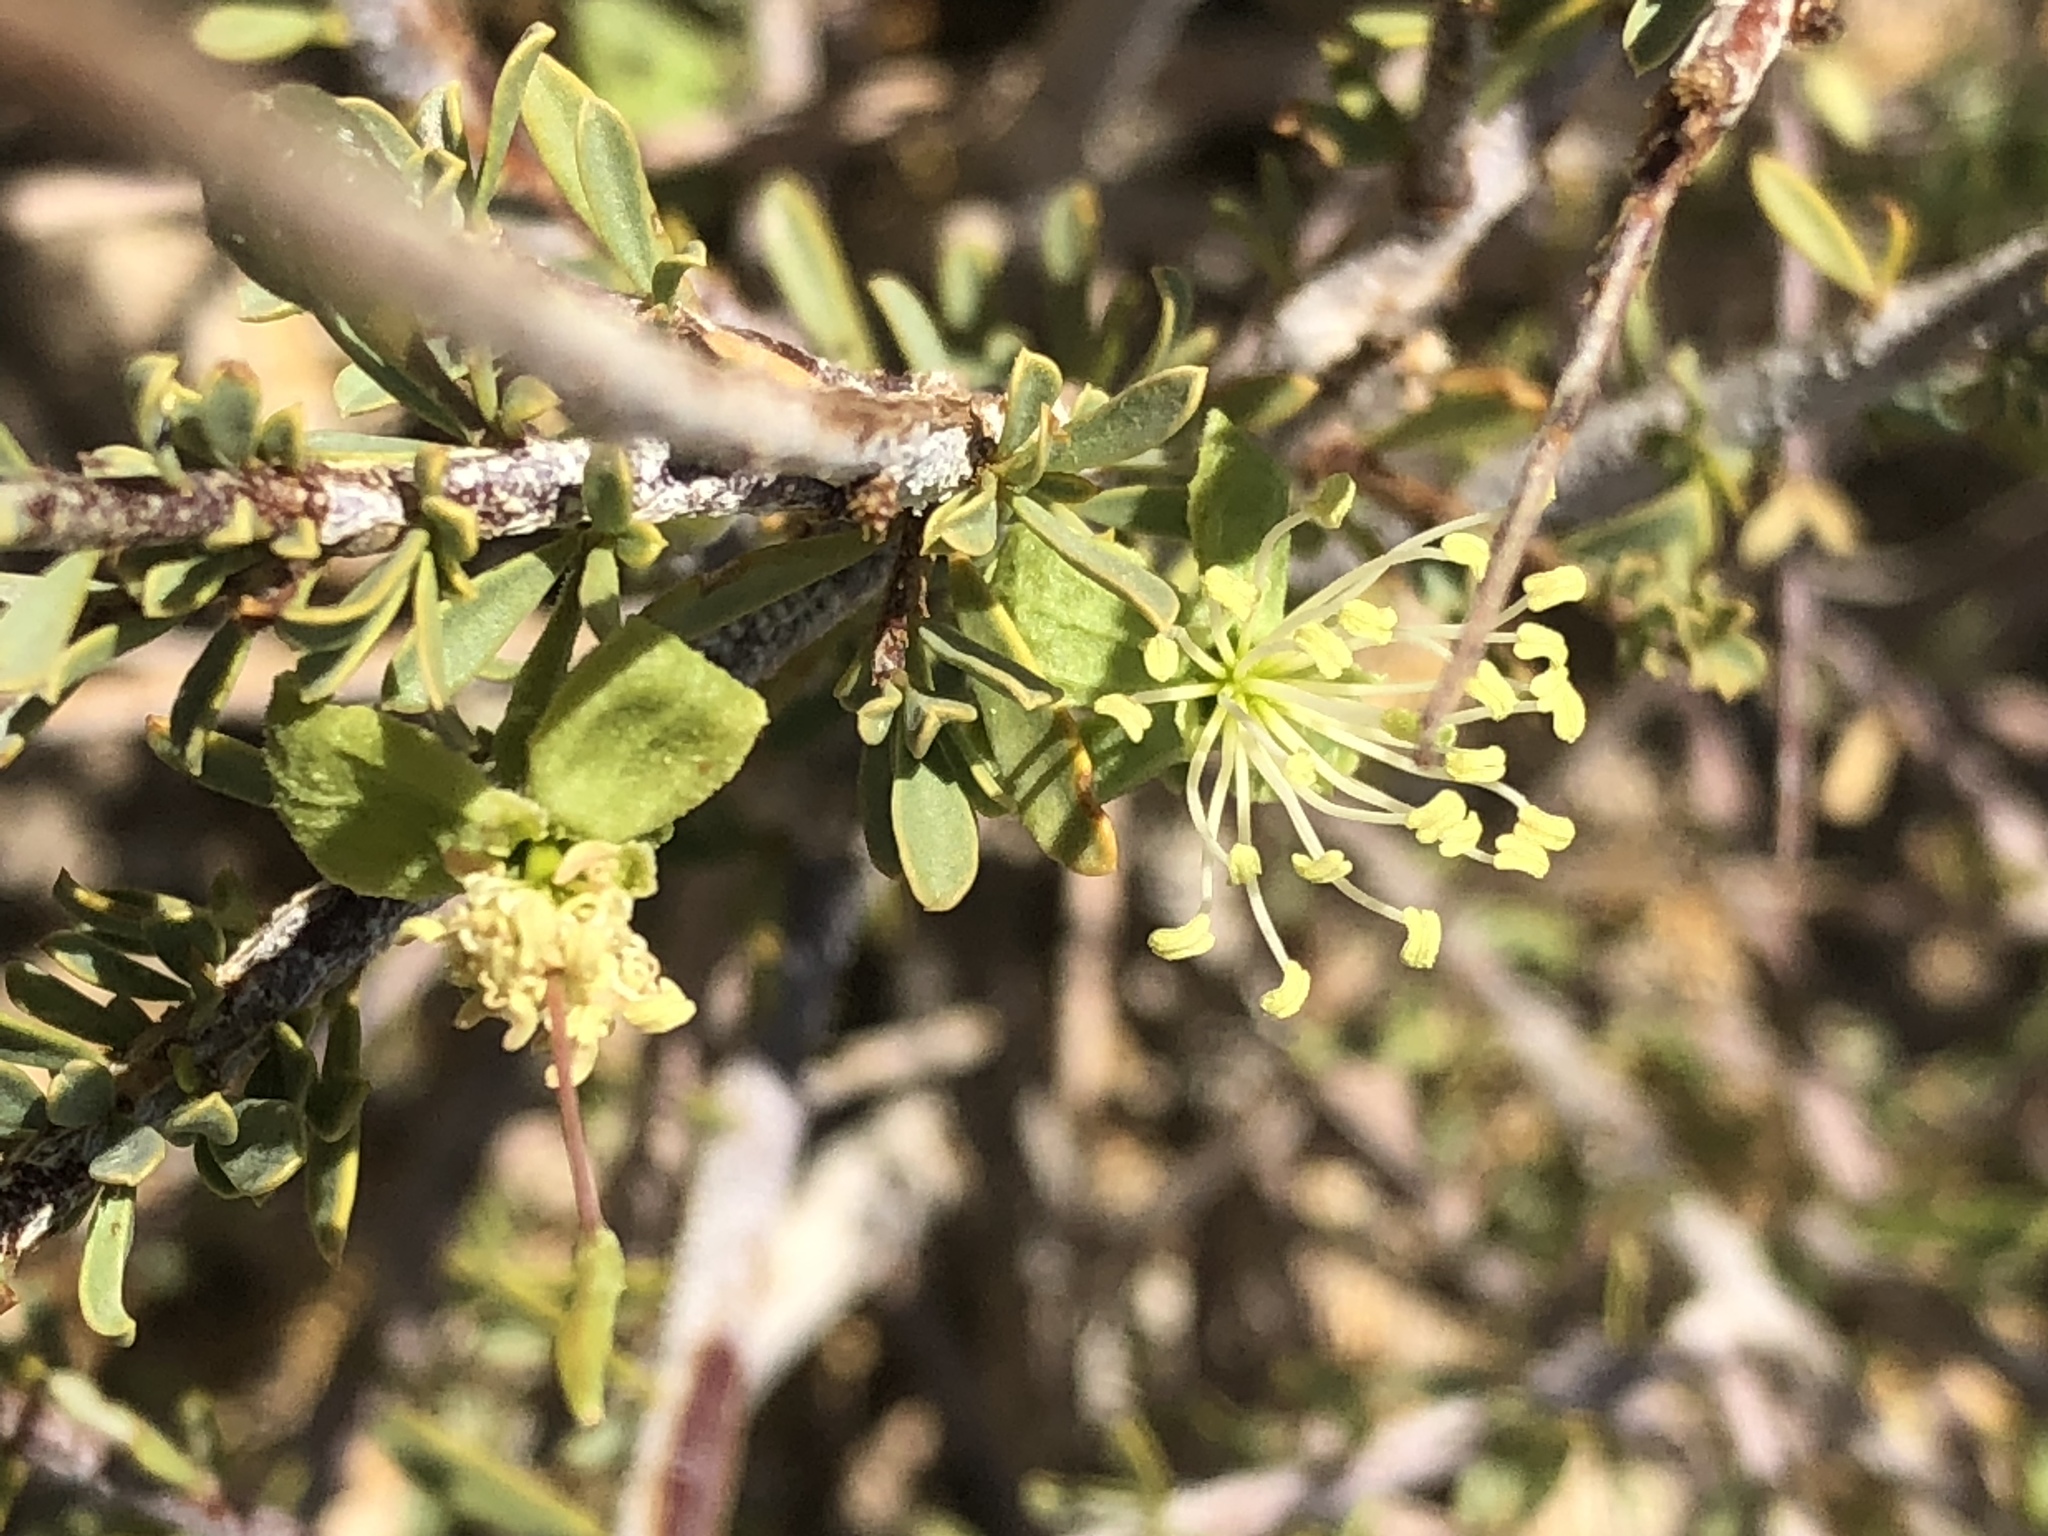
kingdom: Plantae
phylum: Tracheophyta
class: Magnoliopsida
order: Brassicales
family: Capparaceae
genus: Maerua
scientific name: Maerua parvifolia
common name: Dwarf bush-cherry
